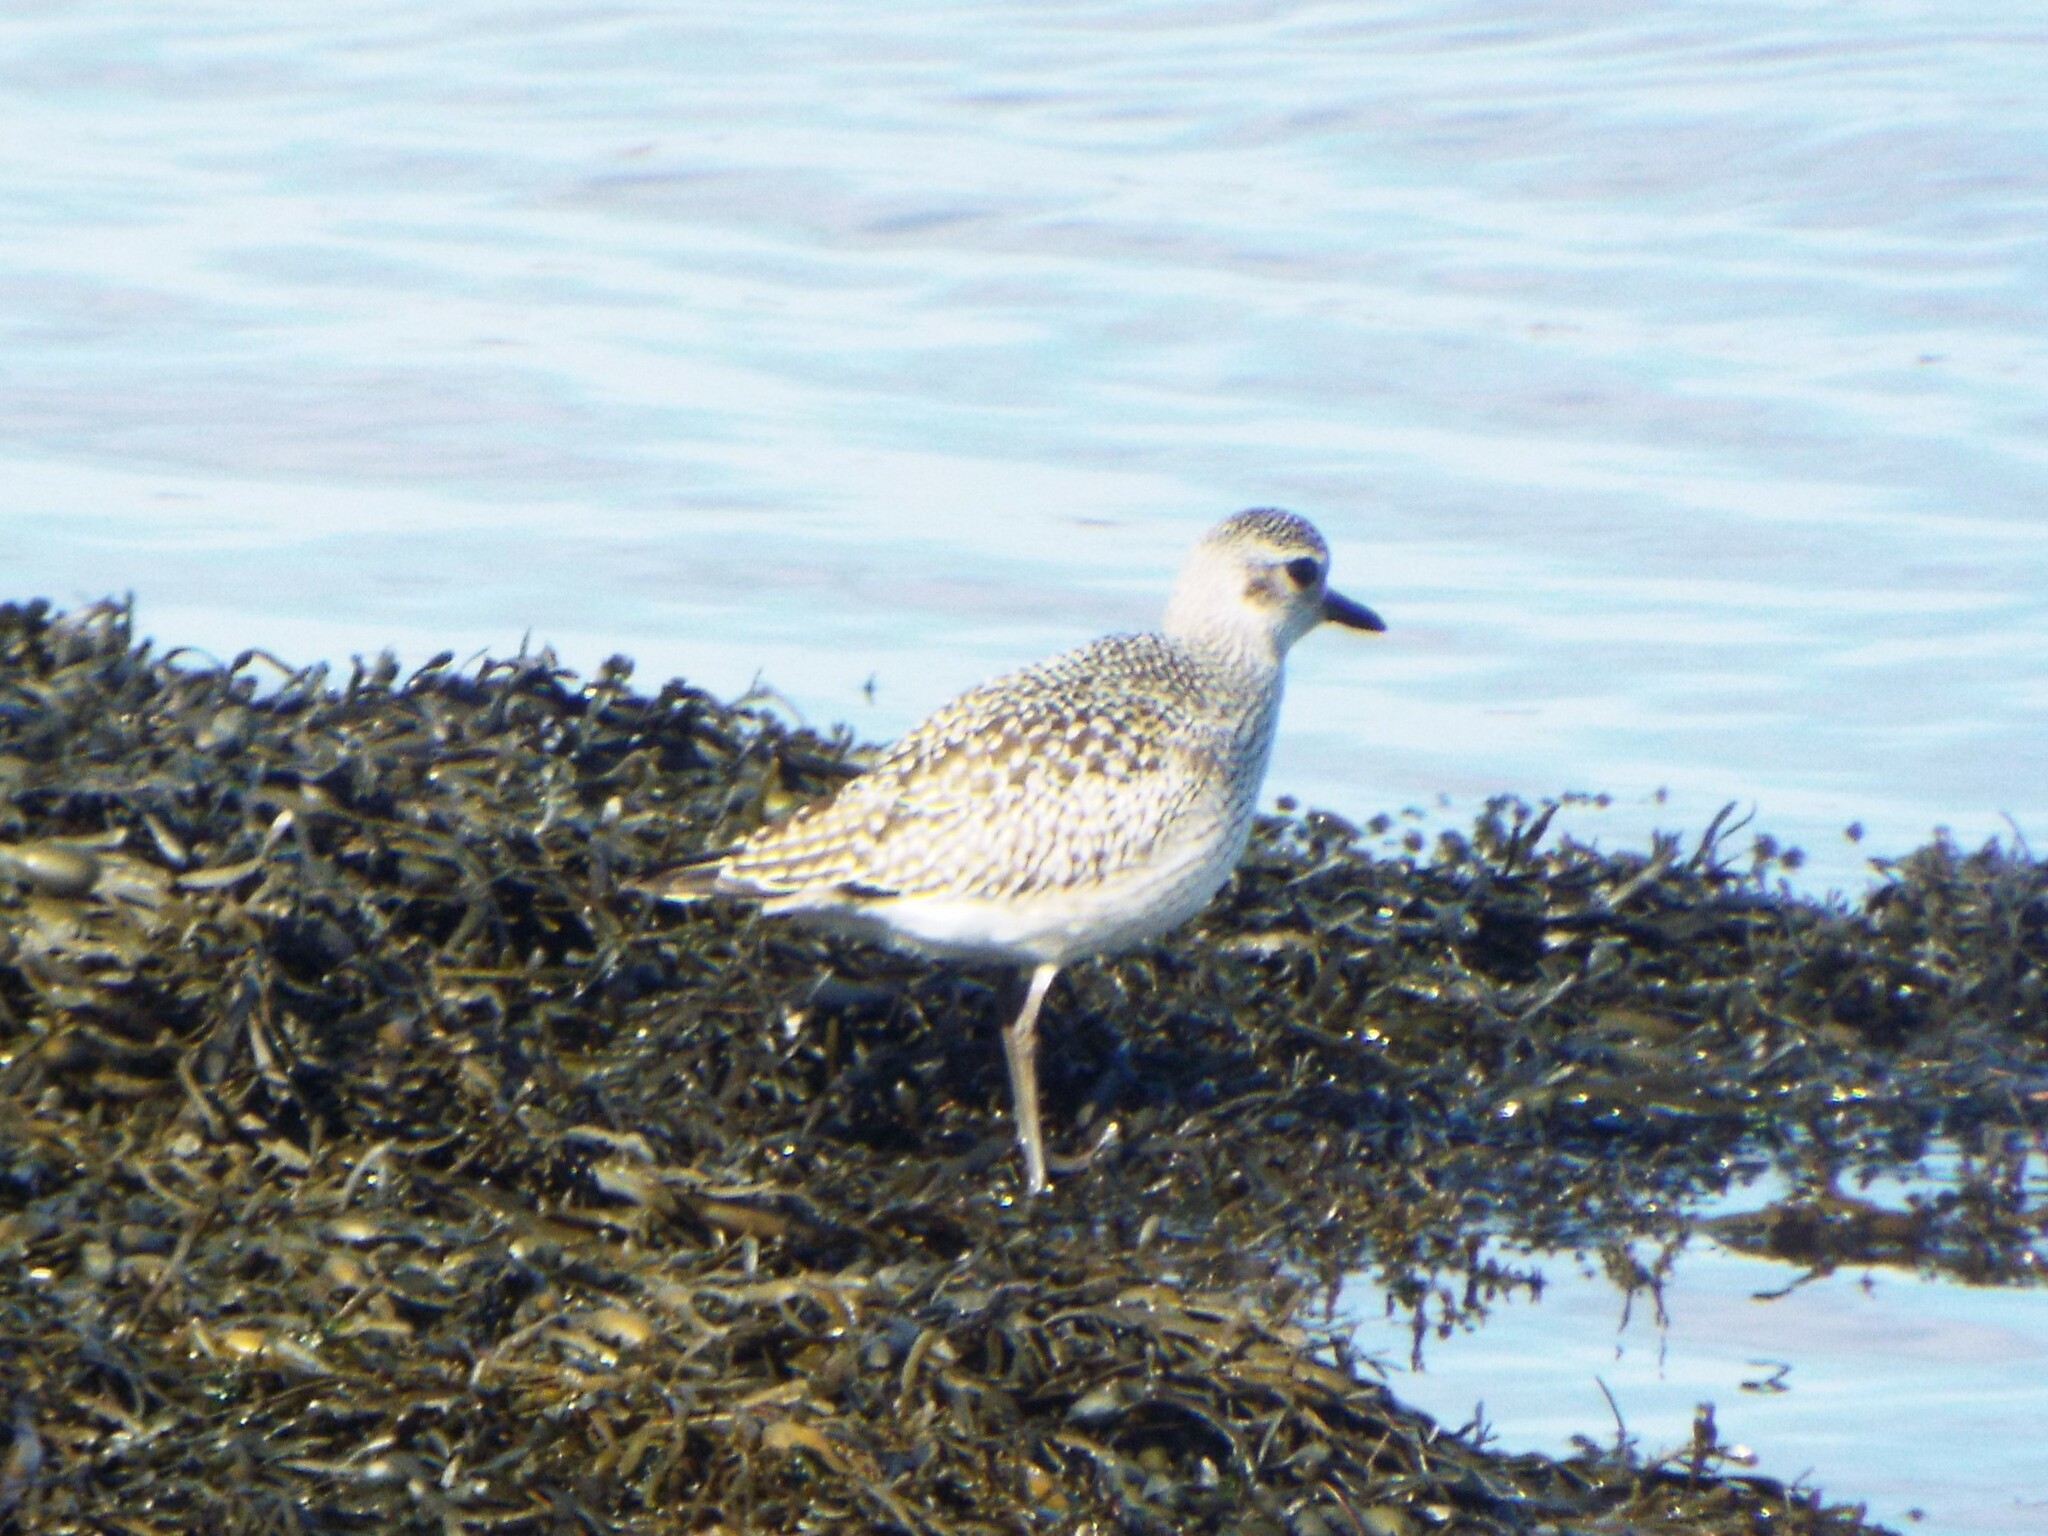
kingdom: Animalia
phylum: Chordata
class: Aves
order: Charadriiformes
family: Charadriidae
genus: Pluvialis
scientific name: Pluvialis squatarola
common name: Grey plover
